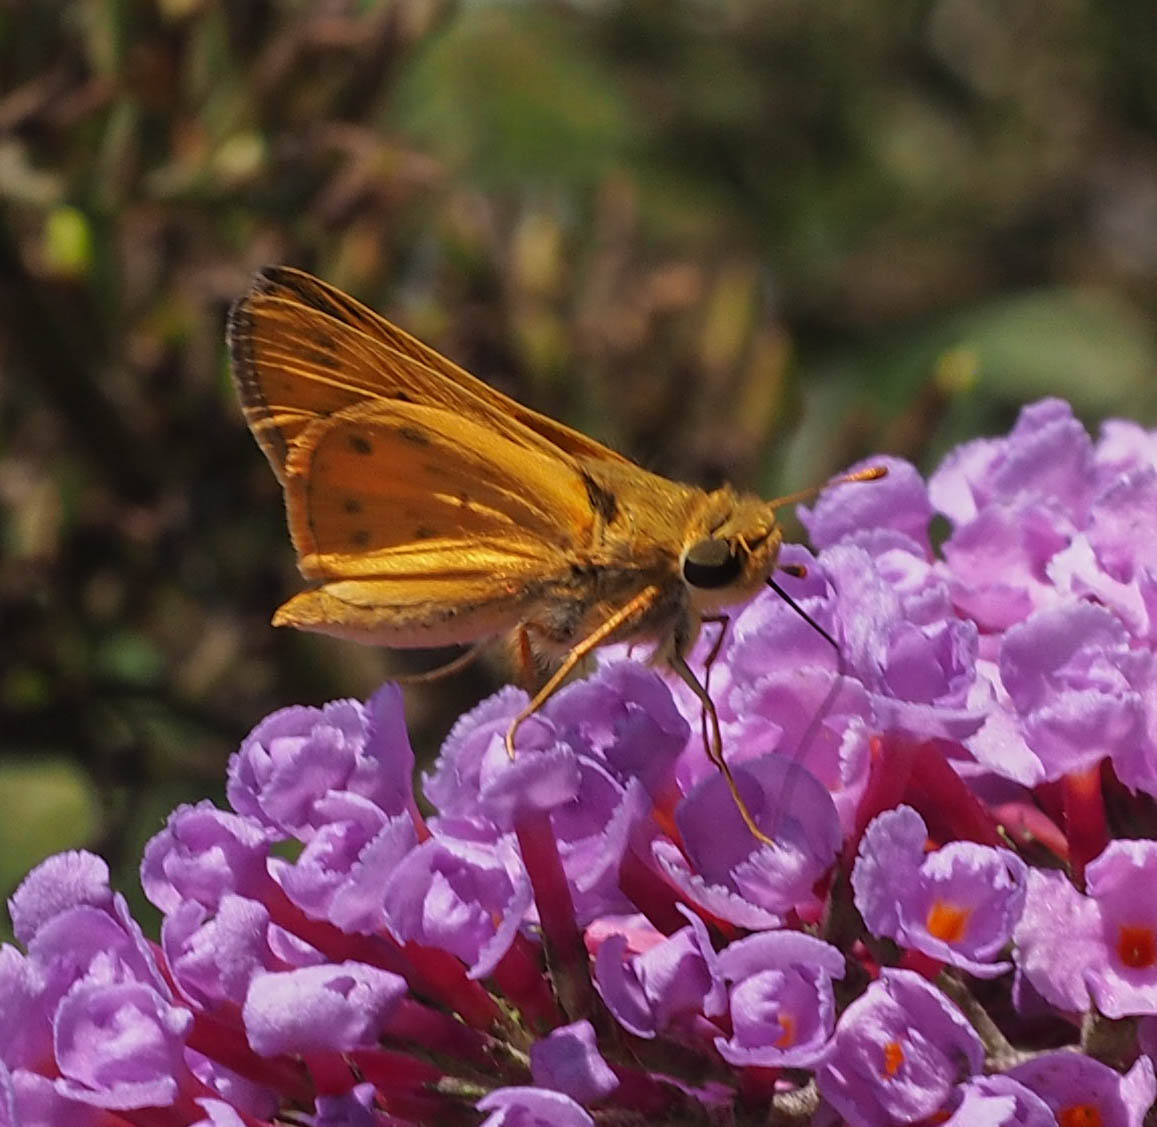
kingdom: Animalia
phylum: Arthropoda
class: Insecta
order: Lepidoptera
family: Hesperiidae
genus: Hylephila
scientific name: Hylephila phyleus
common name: Fiery skipper
